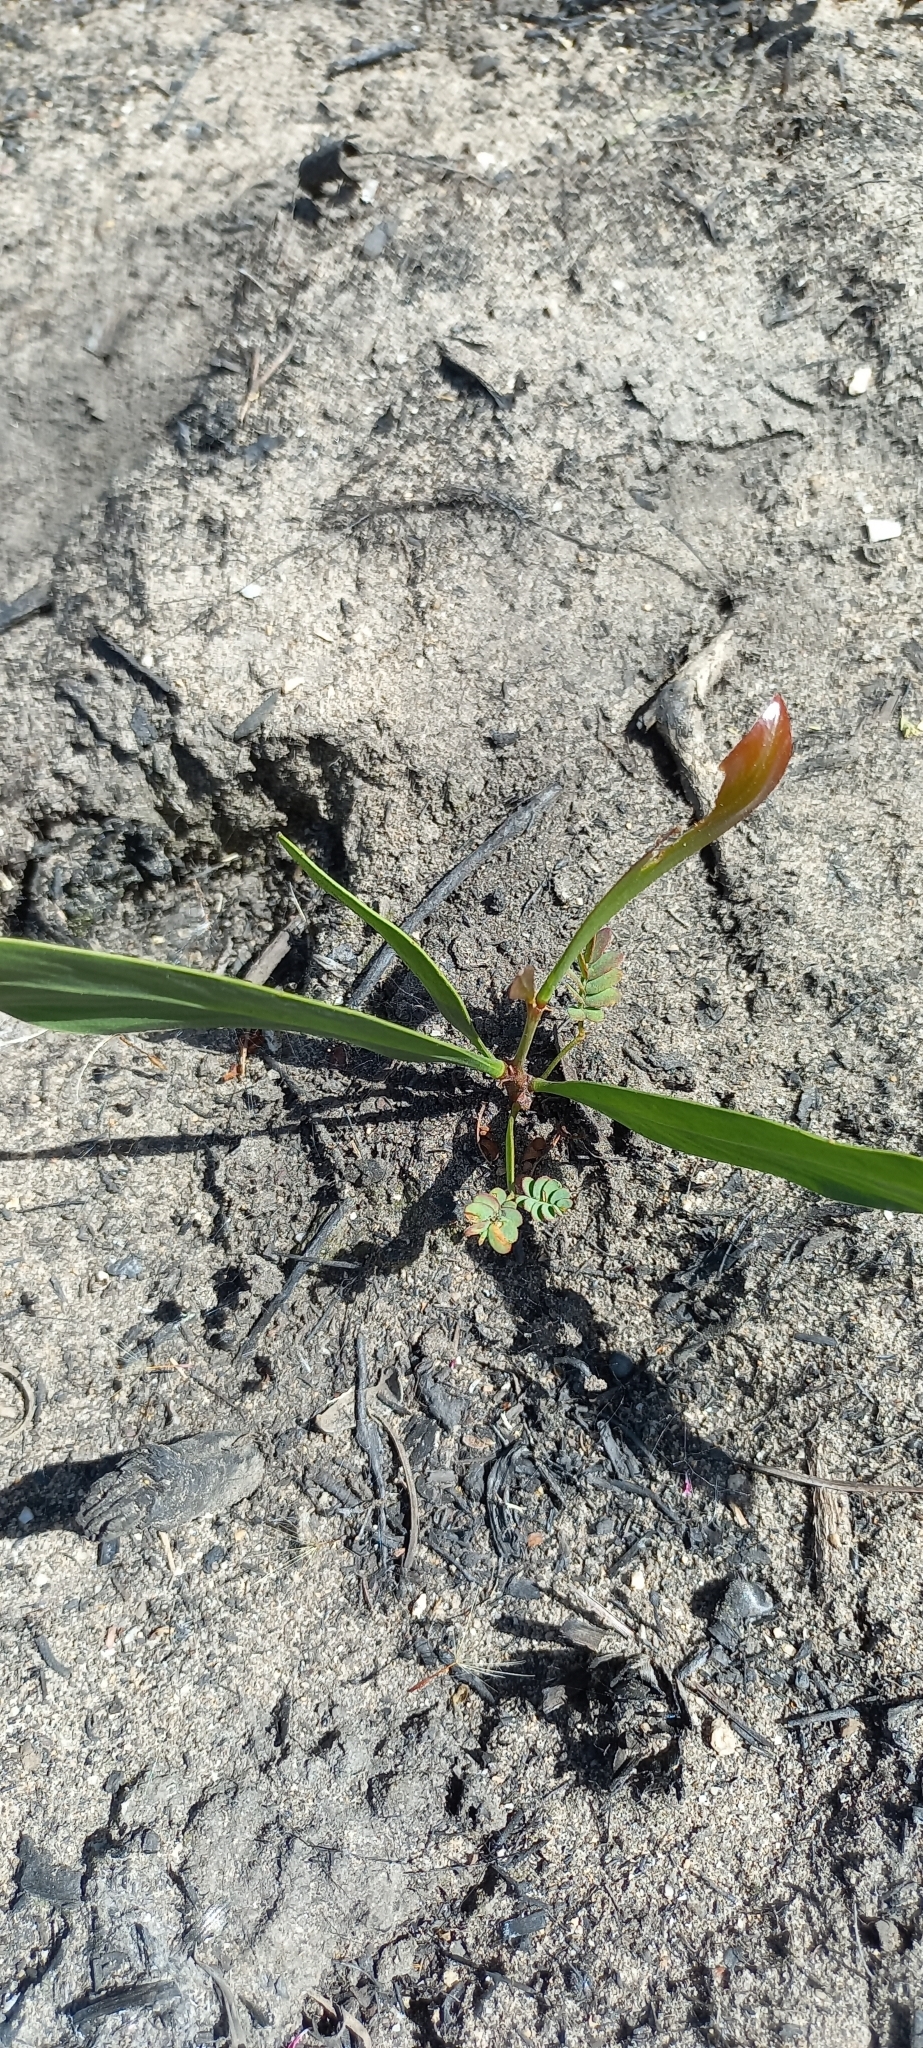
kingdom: Plantae
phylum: Tracheophyta
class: Magnoliopsida
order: Fabales
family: Fabaceae
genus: Acacia
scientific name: Acacia saligna
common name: Orange wattle
